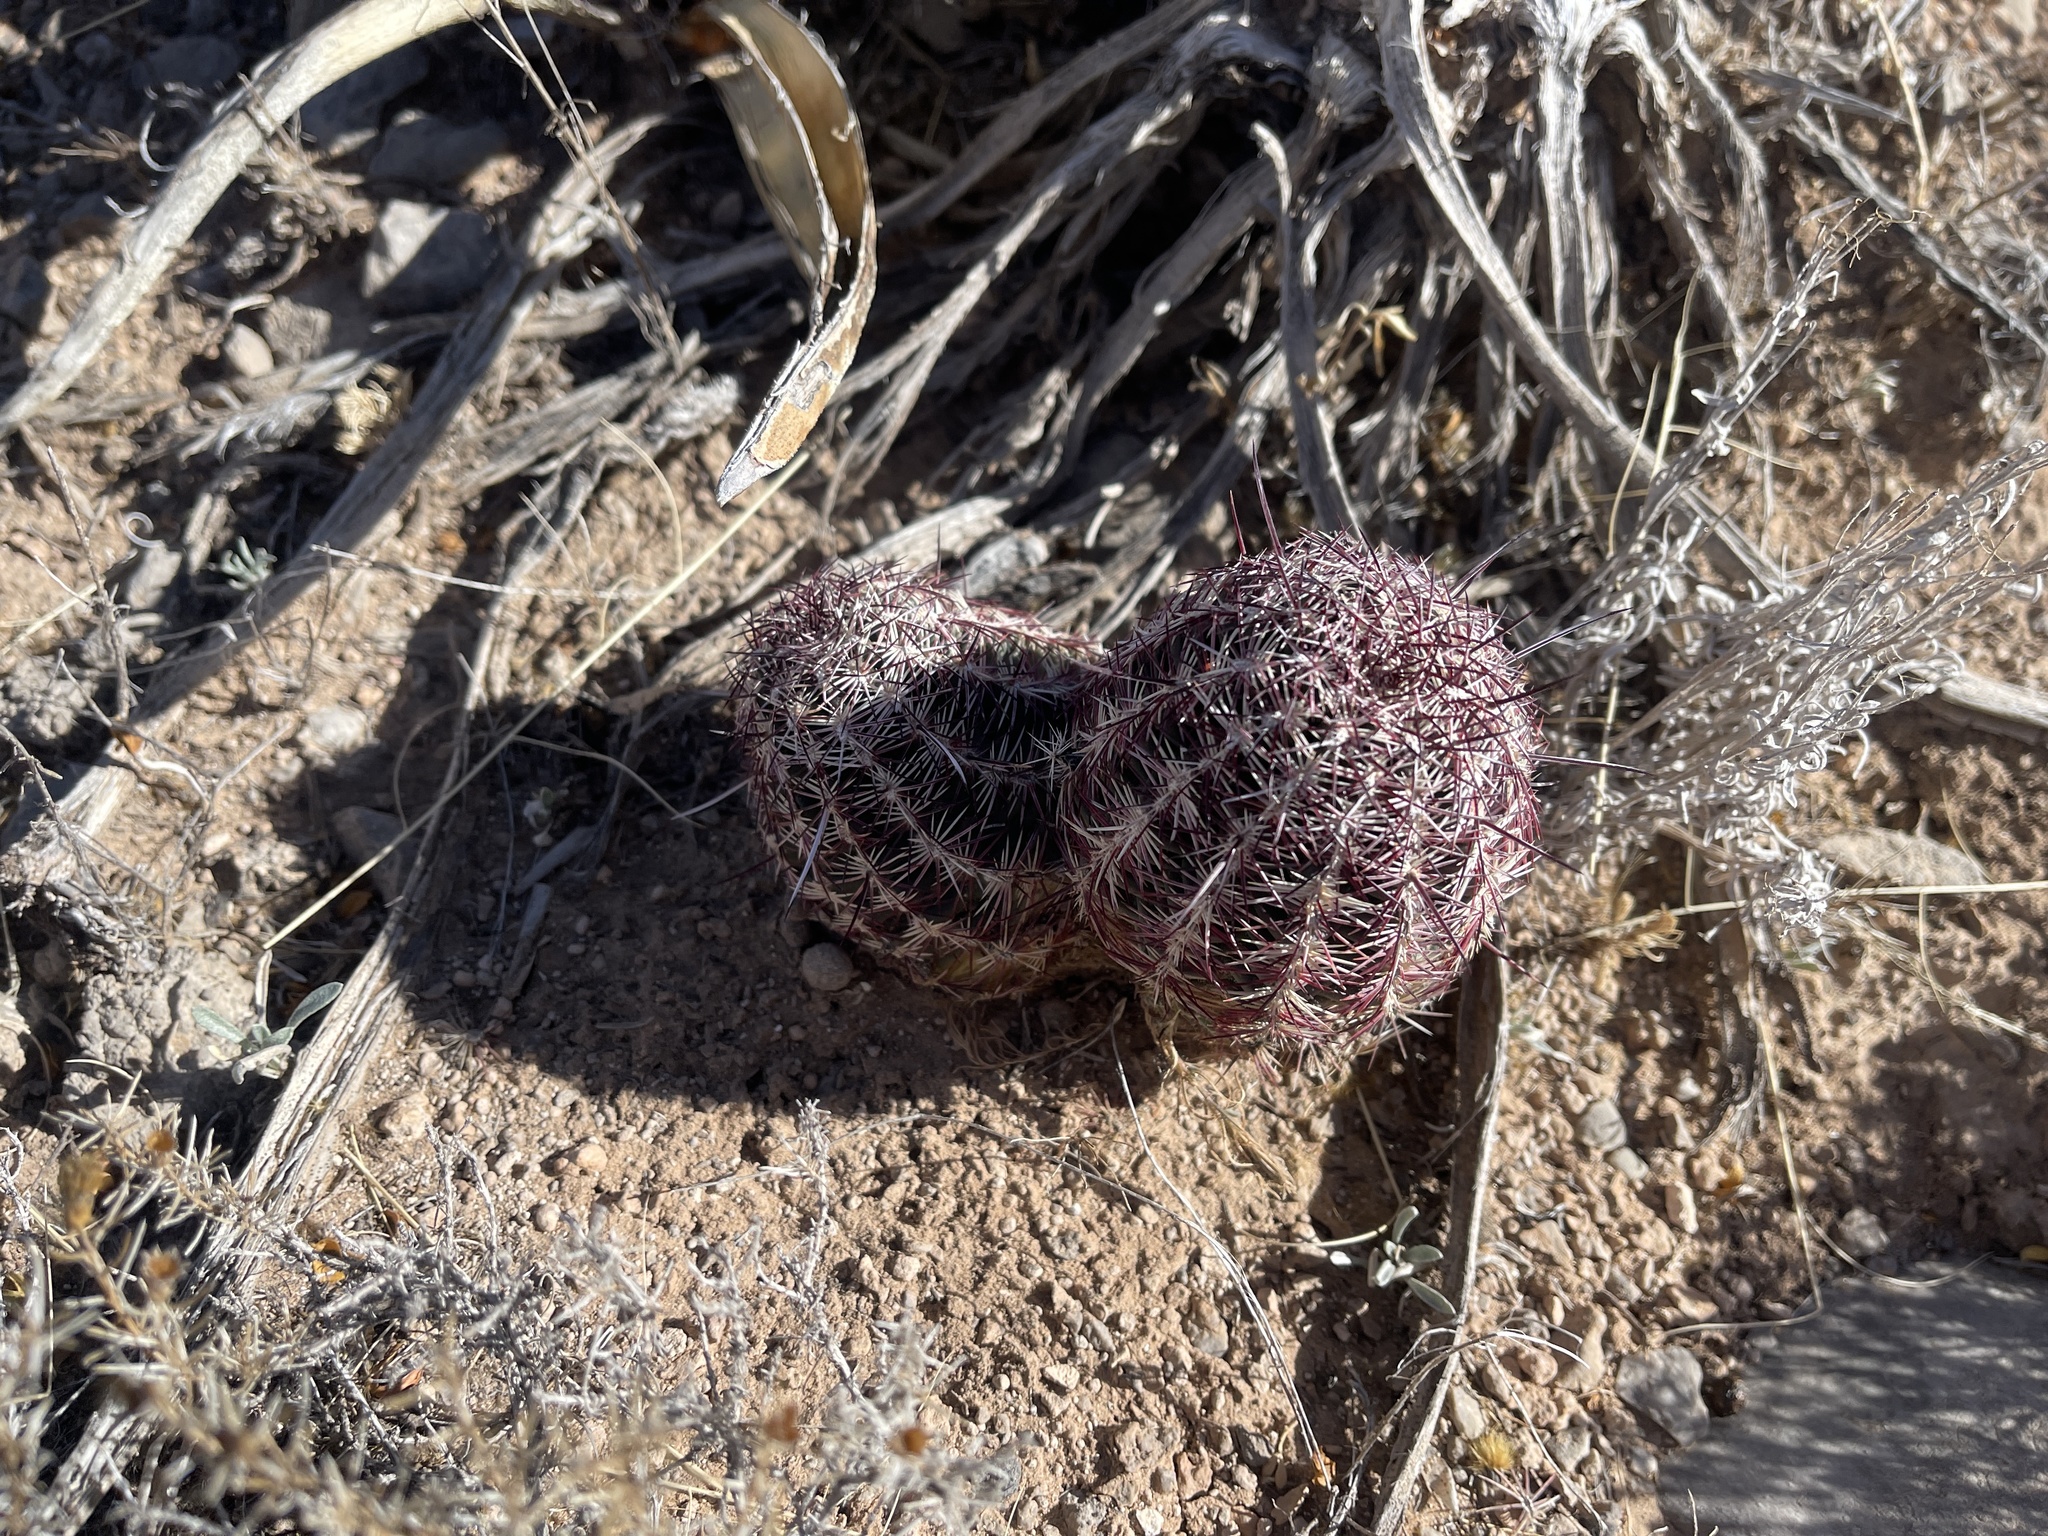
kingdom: Plantae
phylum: Tracheophyta
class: Magnoliopsida
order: Caryophyllales
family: Cactaceae
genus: Echinocereus
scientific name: Echinocereus viridiflorus
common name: Nylon hedgehog cactus
